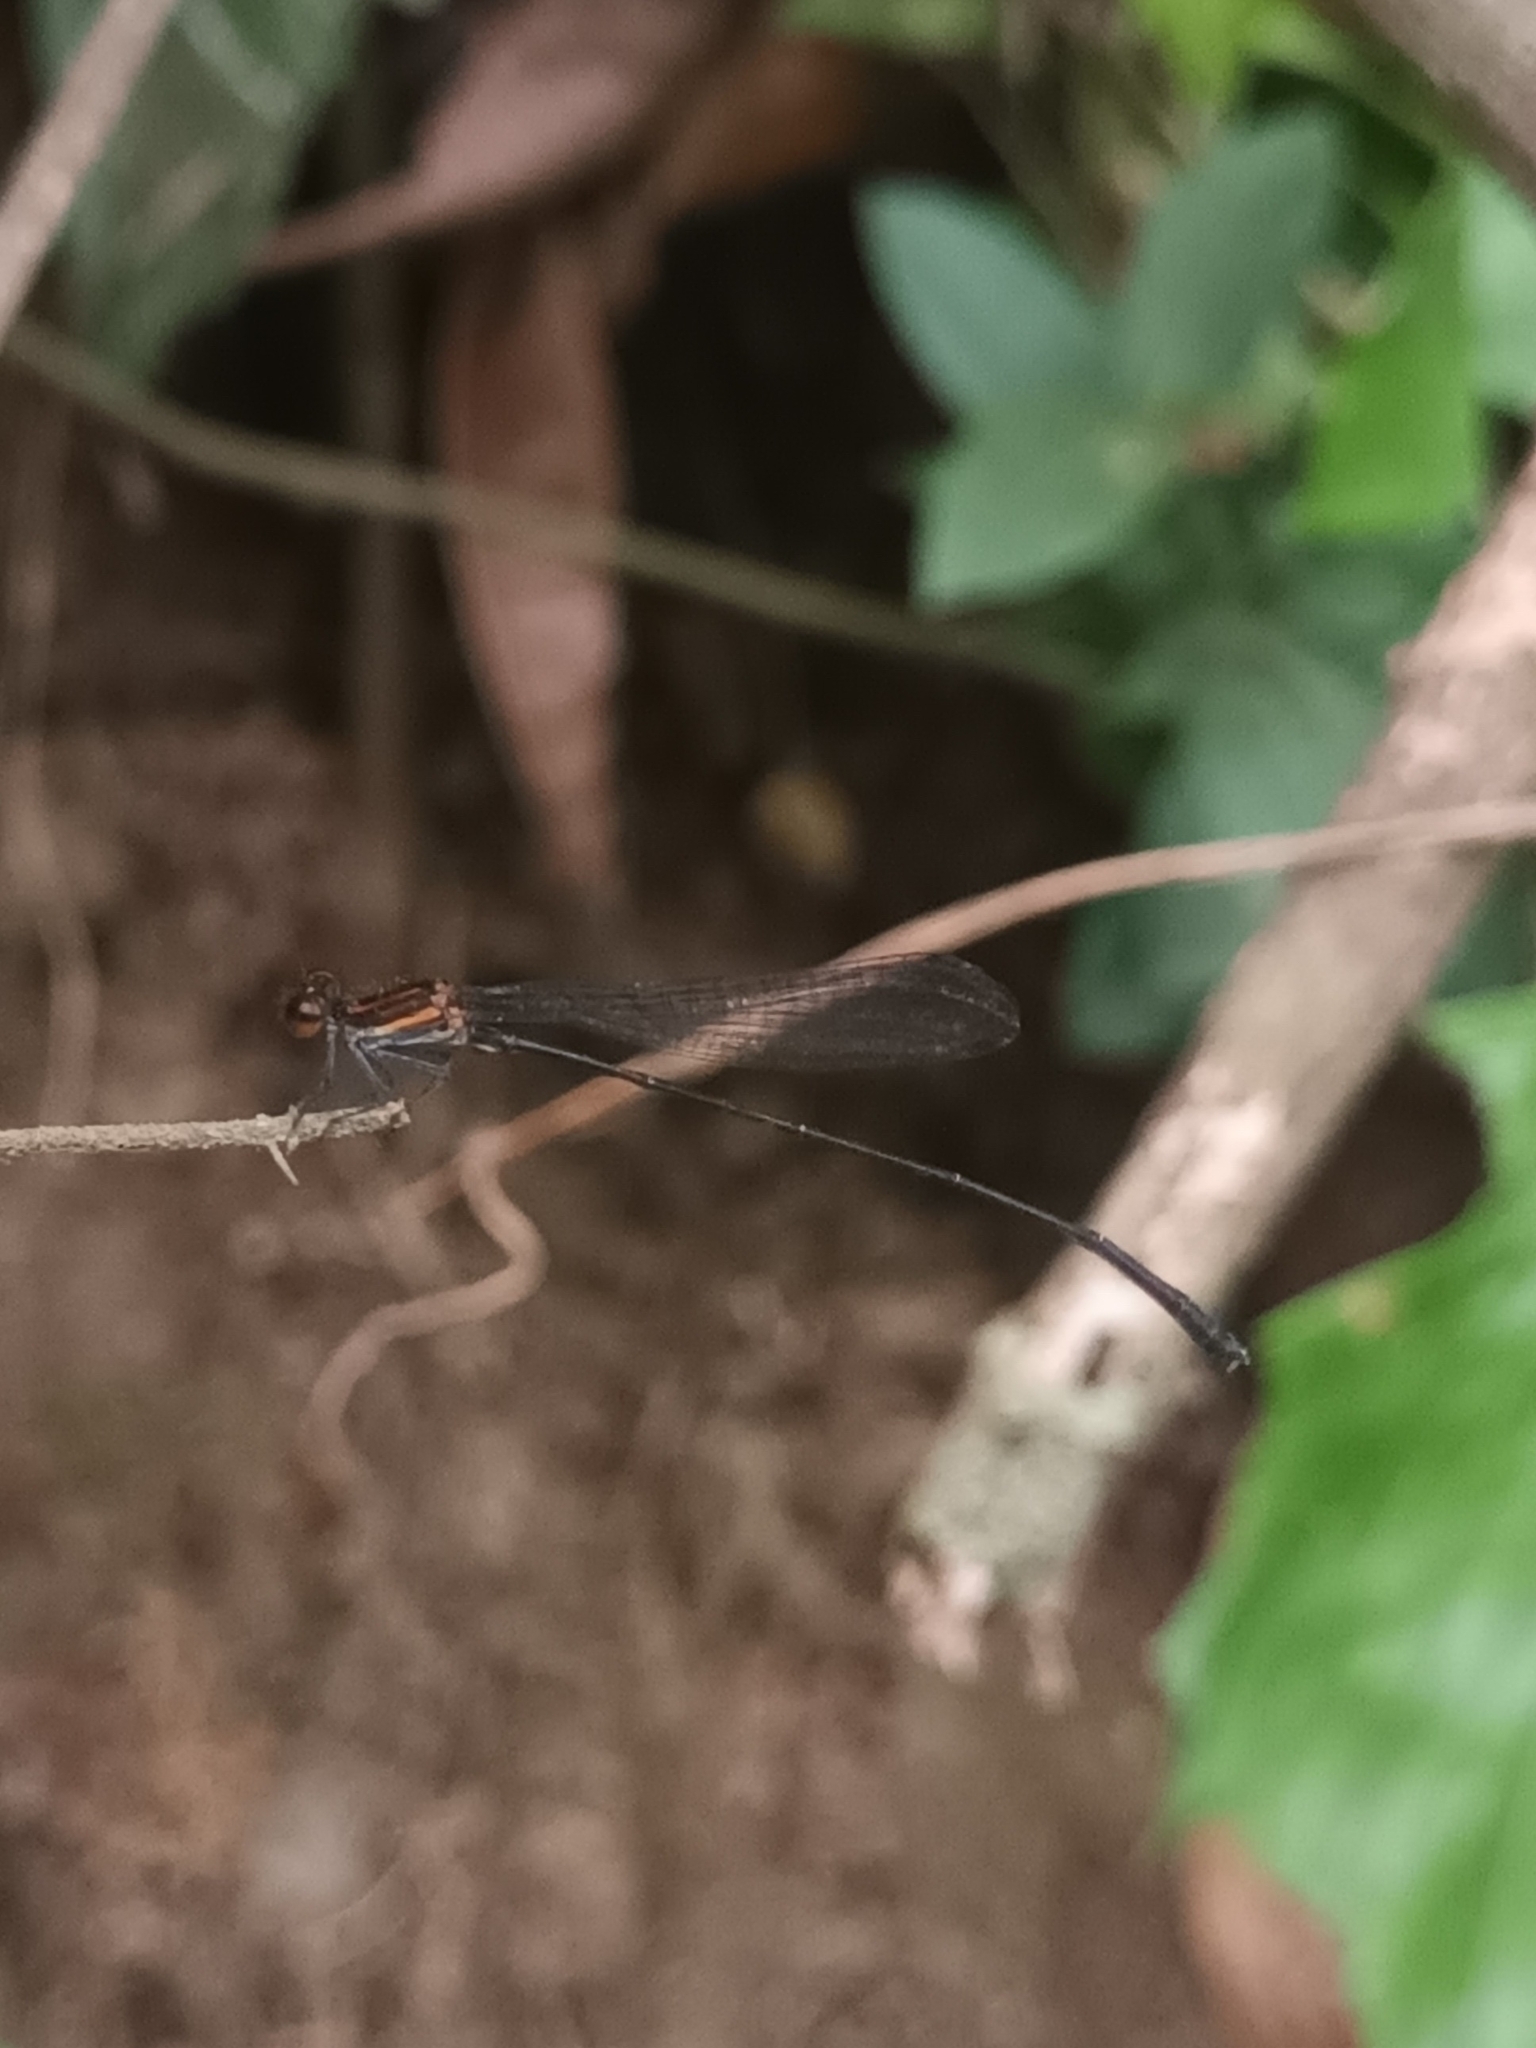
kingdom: Animalia
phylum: Arthropoda
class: Insecta
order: Odonata
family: Platycnemididae
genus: Prodasineura
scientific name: Prodasineura verticalis
